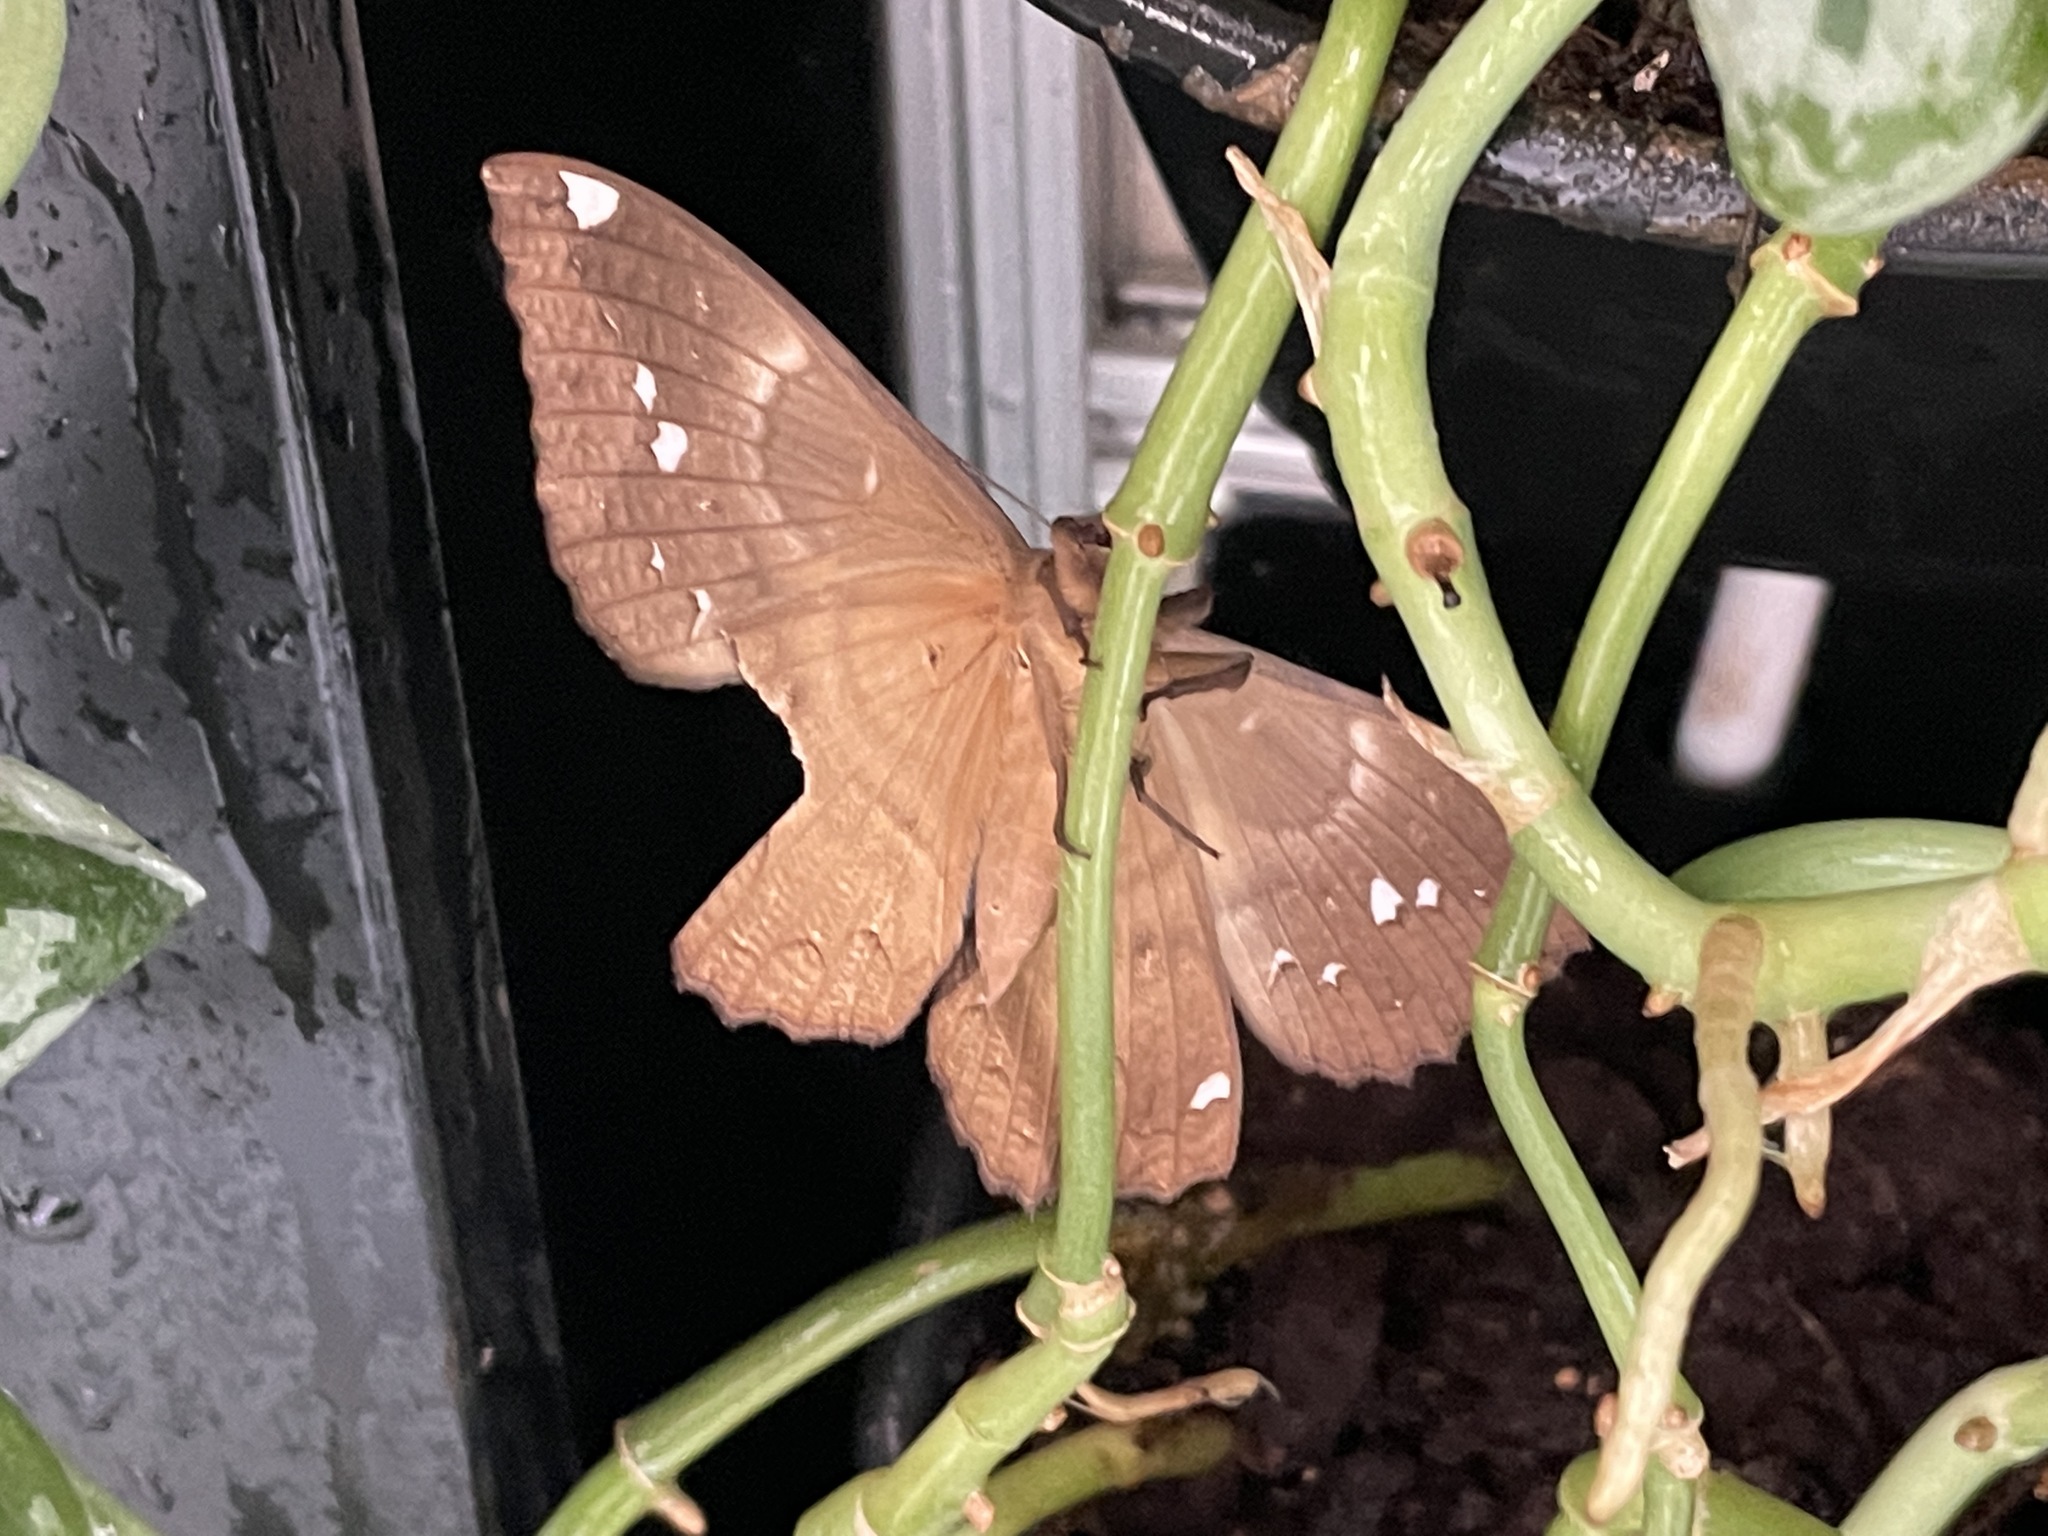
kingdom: Animalia
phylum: Arthropoda
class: Insecta
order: Lepidoptera
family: Erebidae
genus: Erebus
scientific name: Erebus ephesperis
